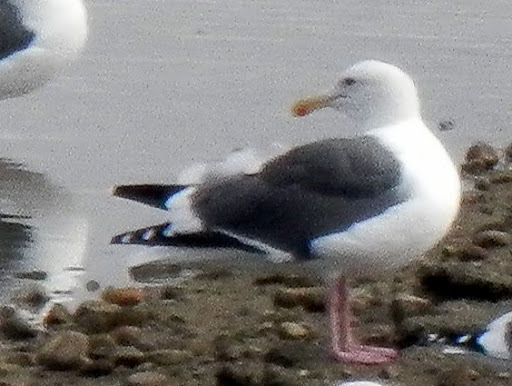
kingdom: Animalia
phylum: Chordata
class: Aves
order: Charadriiformes
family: Laridae
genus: Larus
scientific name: Larus occidentalis
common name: Western gull
